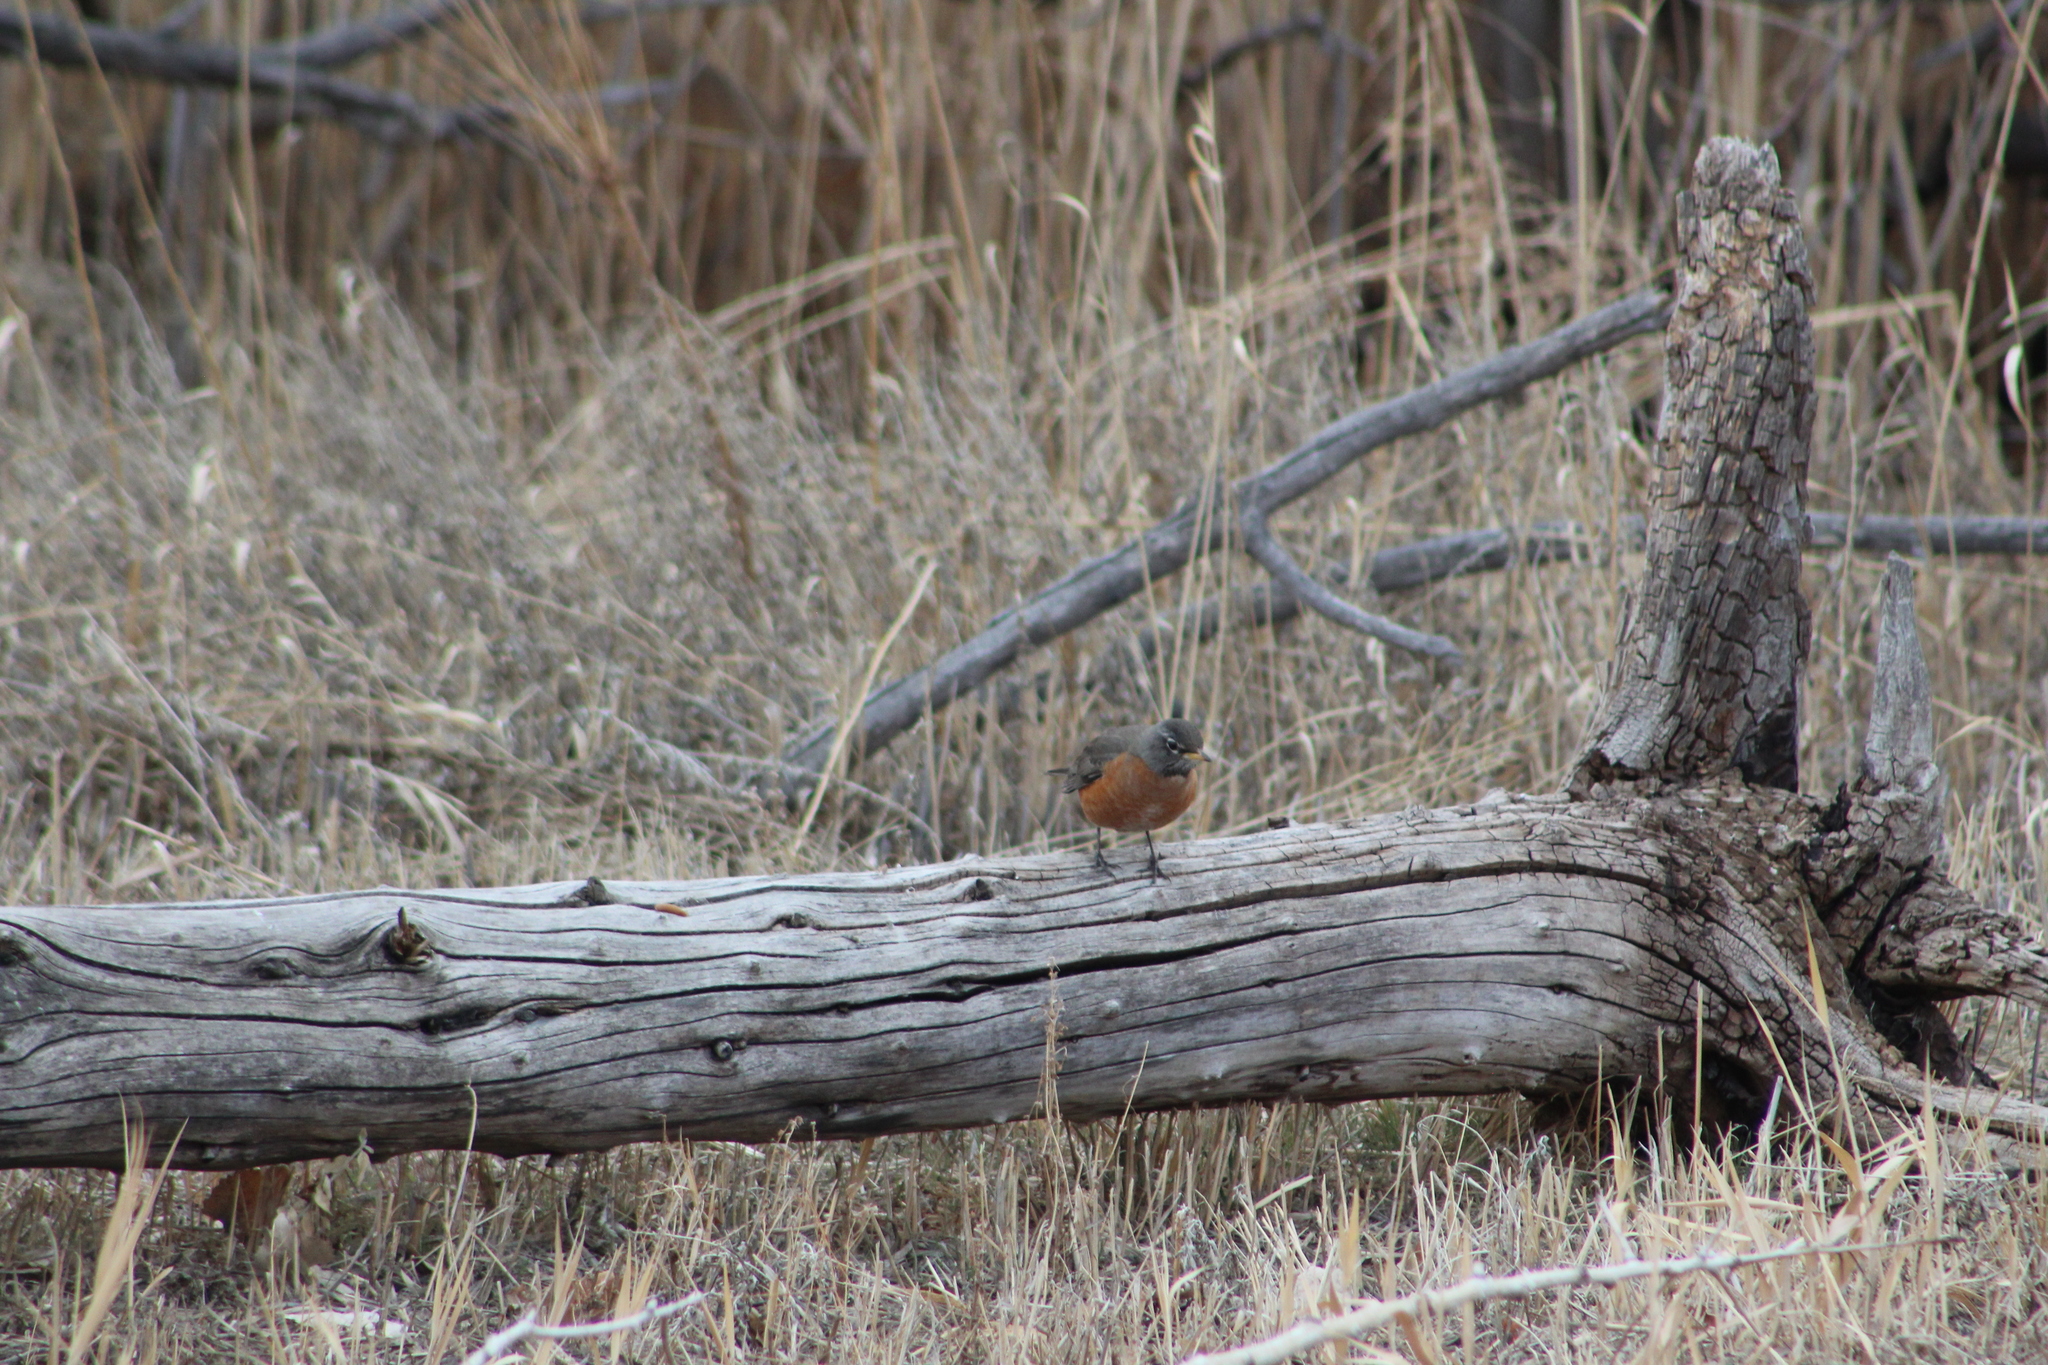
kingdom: Animalia
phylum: Chordata
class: Aves
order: Passeriformes
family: Turdidae
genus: Turdus
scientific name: Turdus migratorius
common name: American robin
